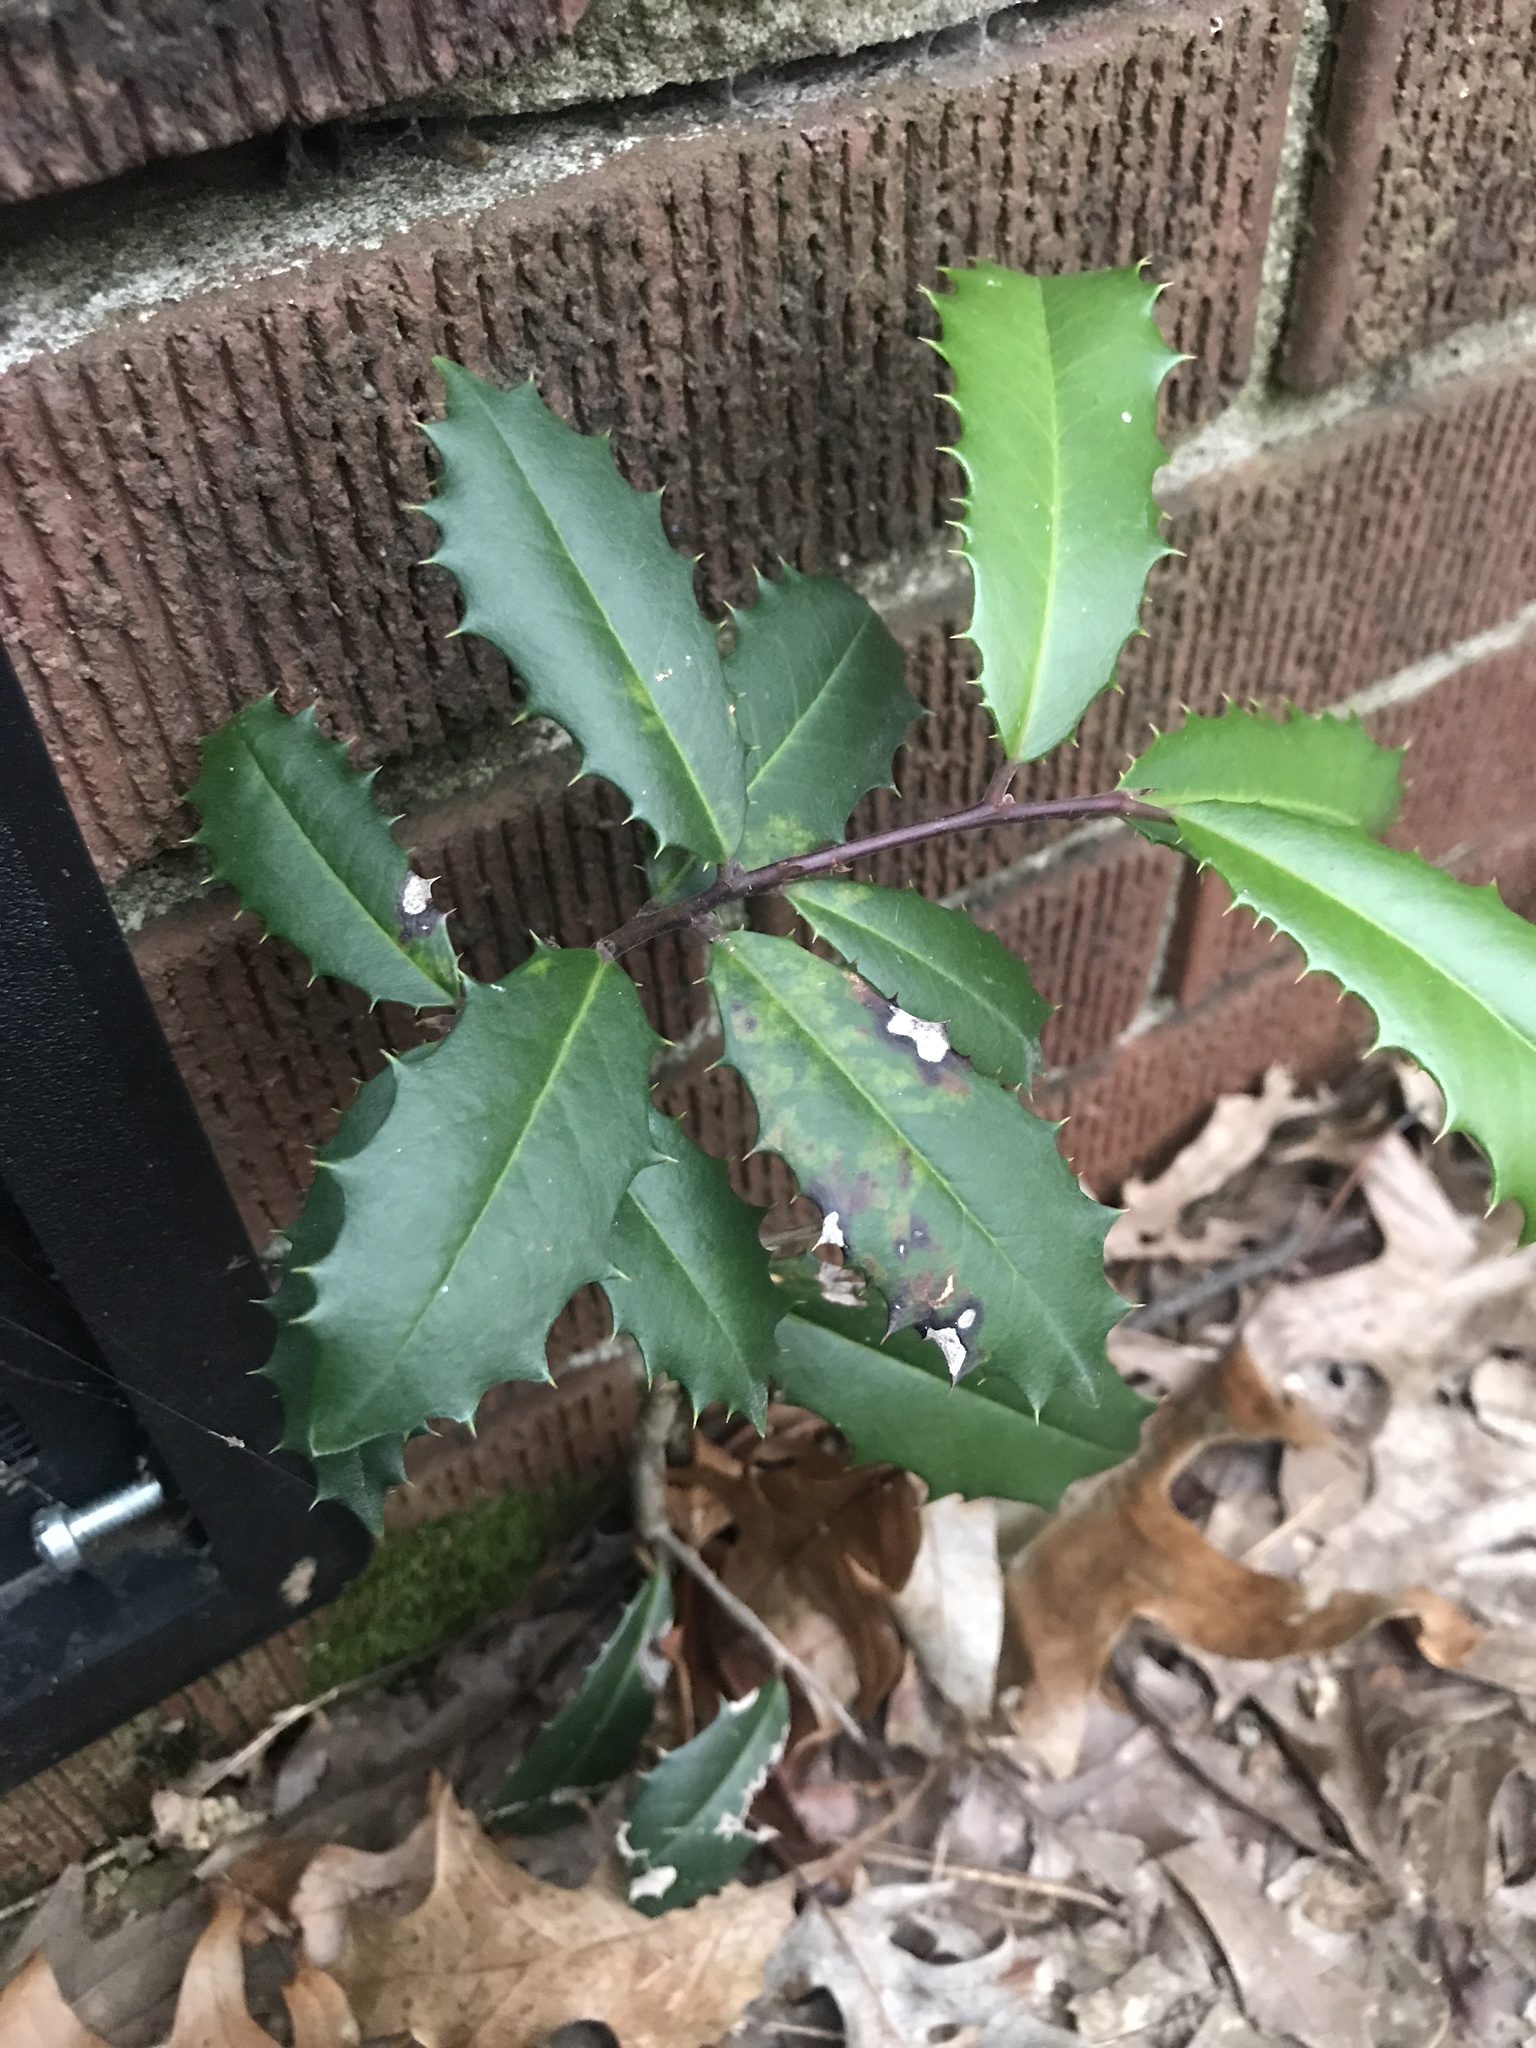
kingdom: Plantae
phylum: Tracheophyta
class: Magnoliopsida
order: Aquifoliales
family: Aquifoliaceae
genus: Ilex
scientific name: Ilex opaca
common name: American holly
